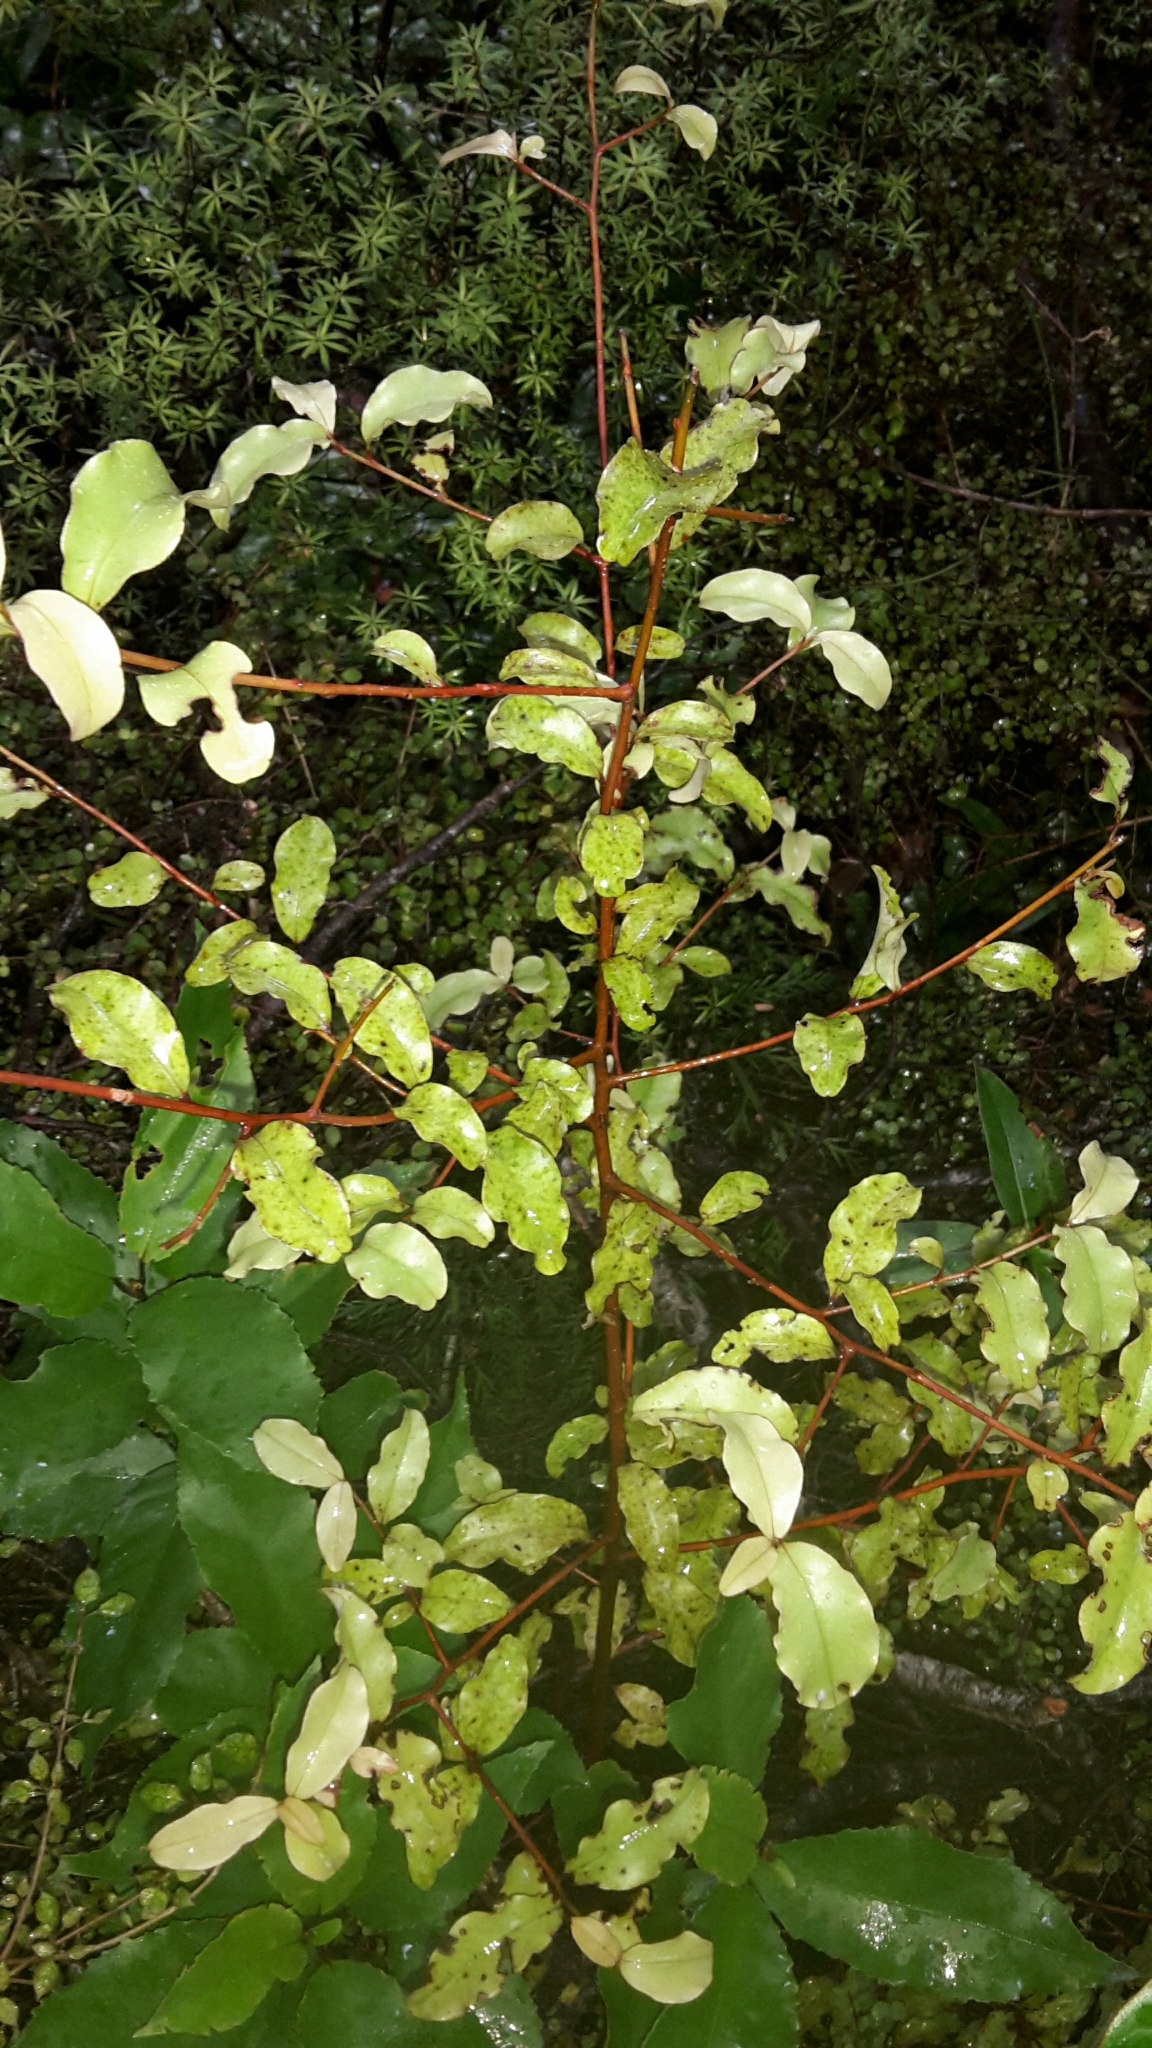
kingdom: Plantae
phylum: Tracheophyta
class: Magnoliopsida
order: Ericales
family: Primulaceae
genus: Myrsine
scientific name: Myrsine australis
